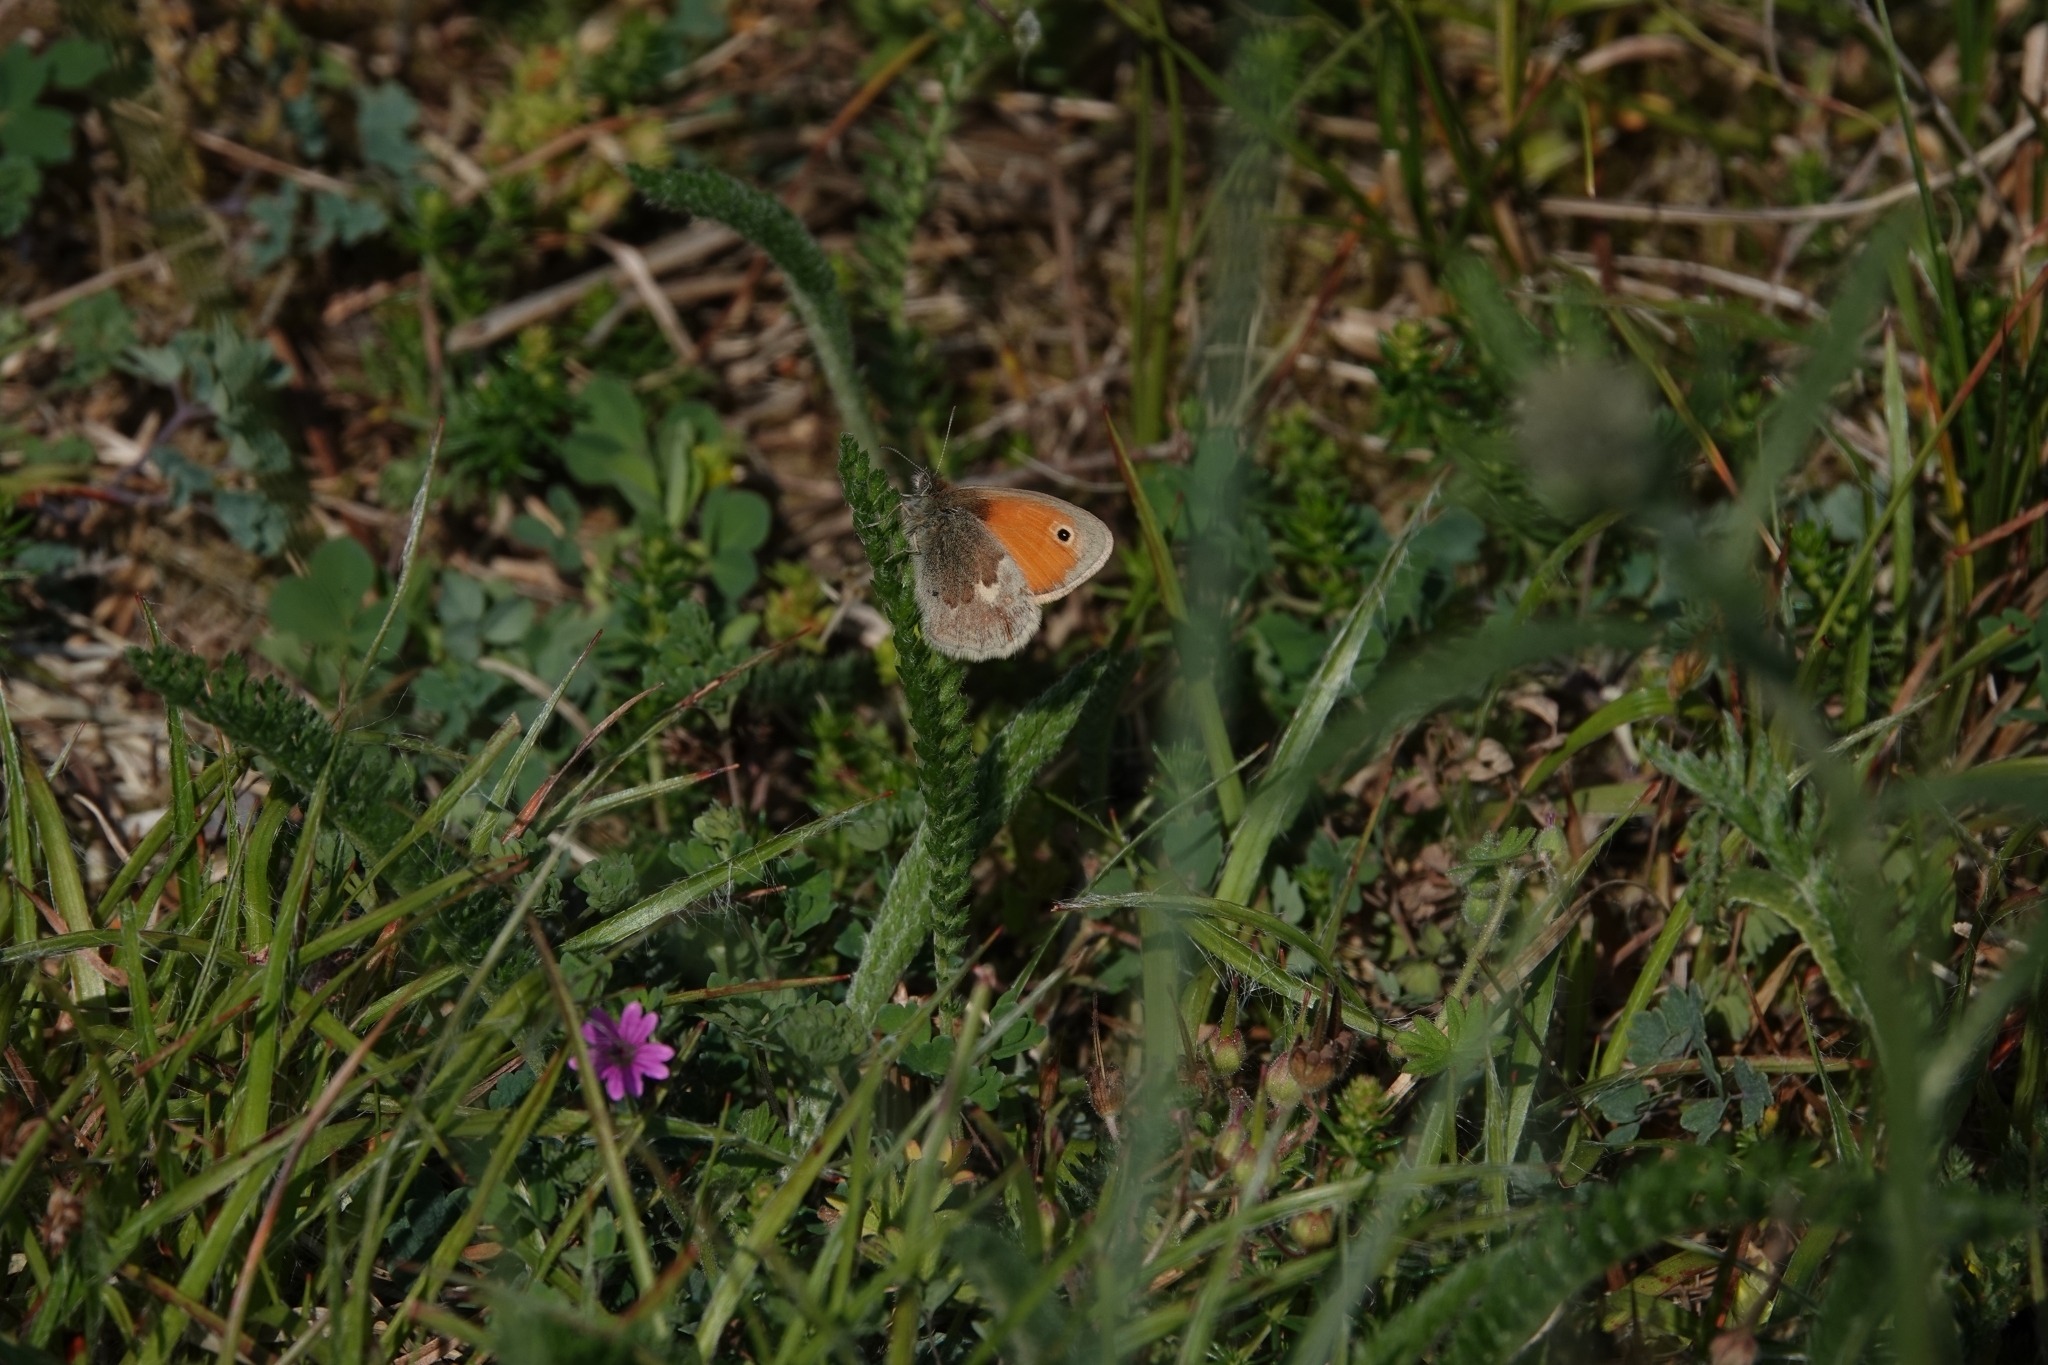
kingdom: Animalia
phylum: Arthropoda
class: Insecta
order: Lepidoptera
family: Nymphalidae
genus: Coenonympha
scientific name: Coenonympha pamphilus
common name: Small heath
